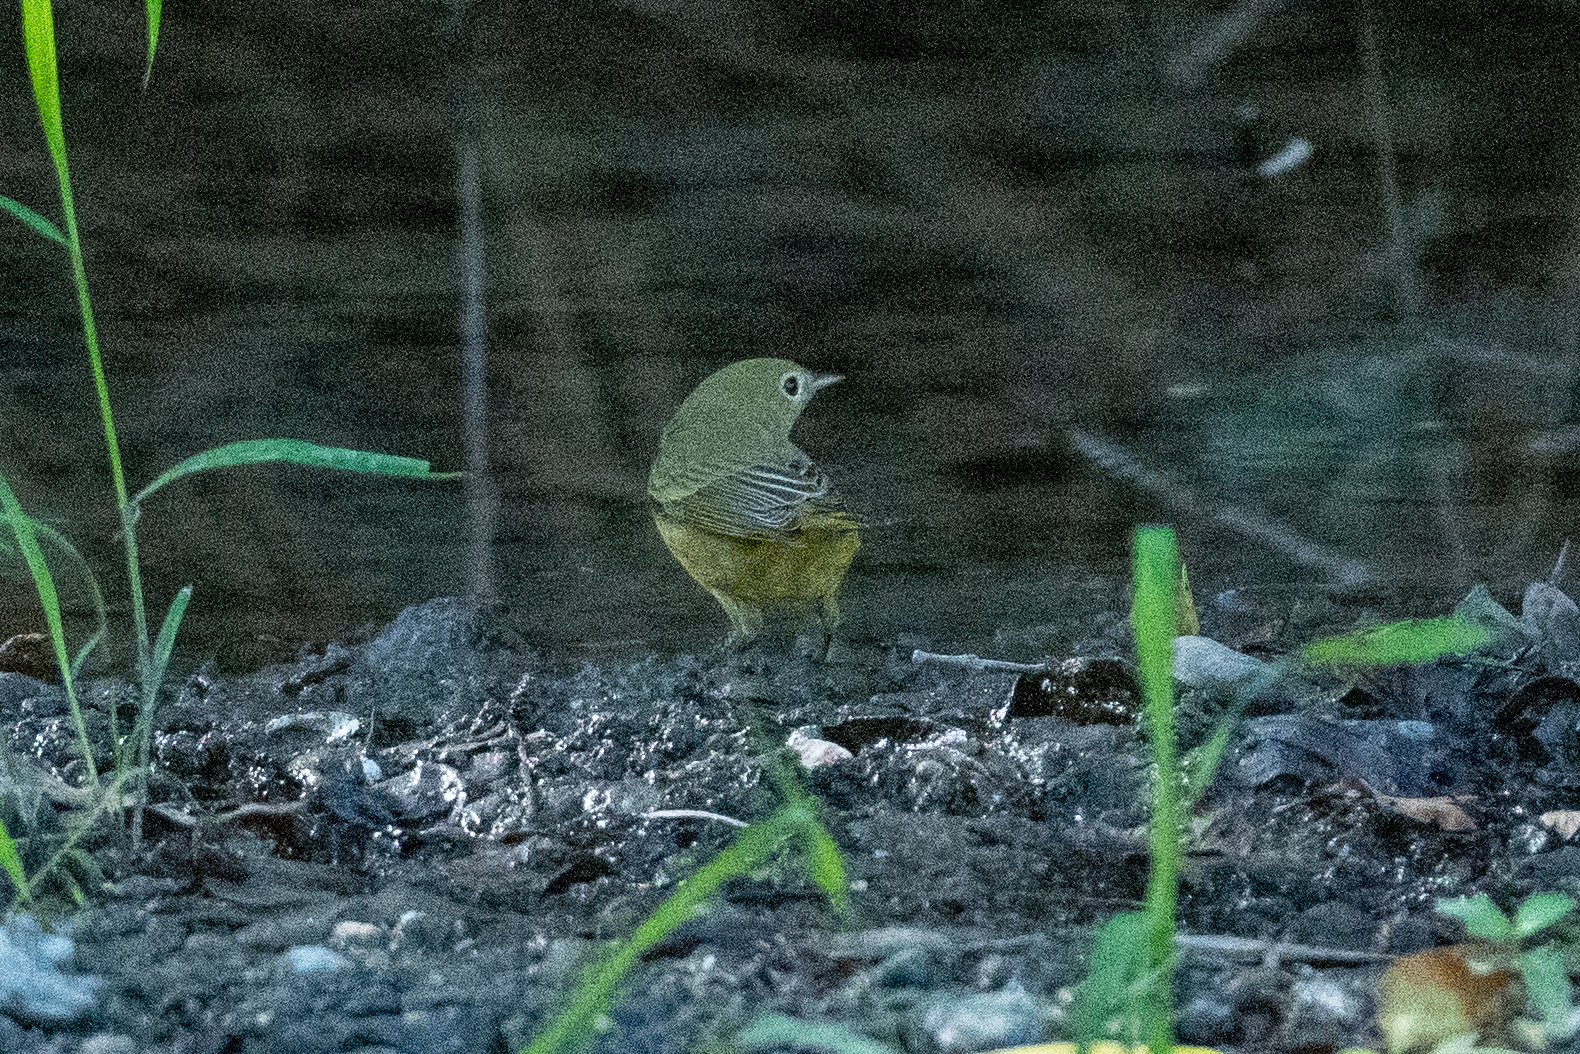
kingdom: Animalia
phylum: Chordata
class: Aves
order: Passeriformes
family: Parulidae
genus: Setophaga
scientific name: Setophaga petechia
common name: Yellow warbler
